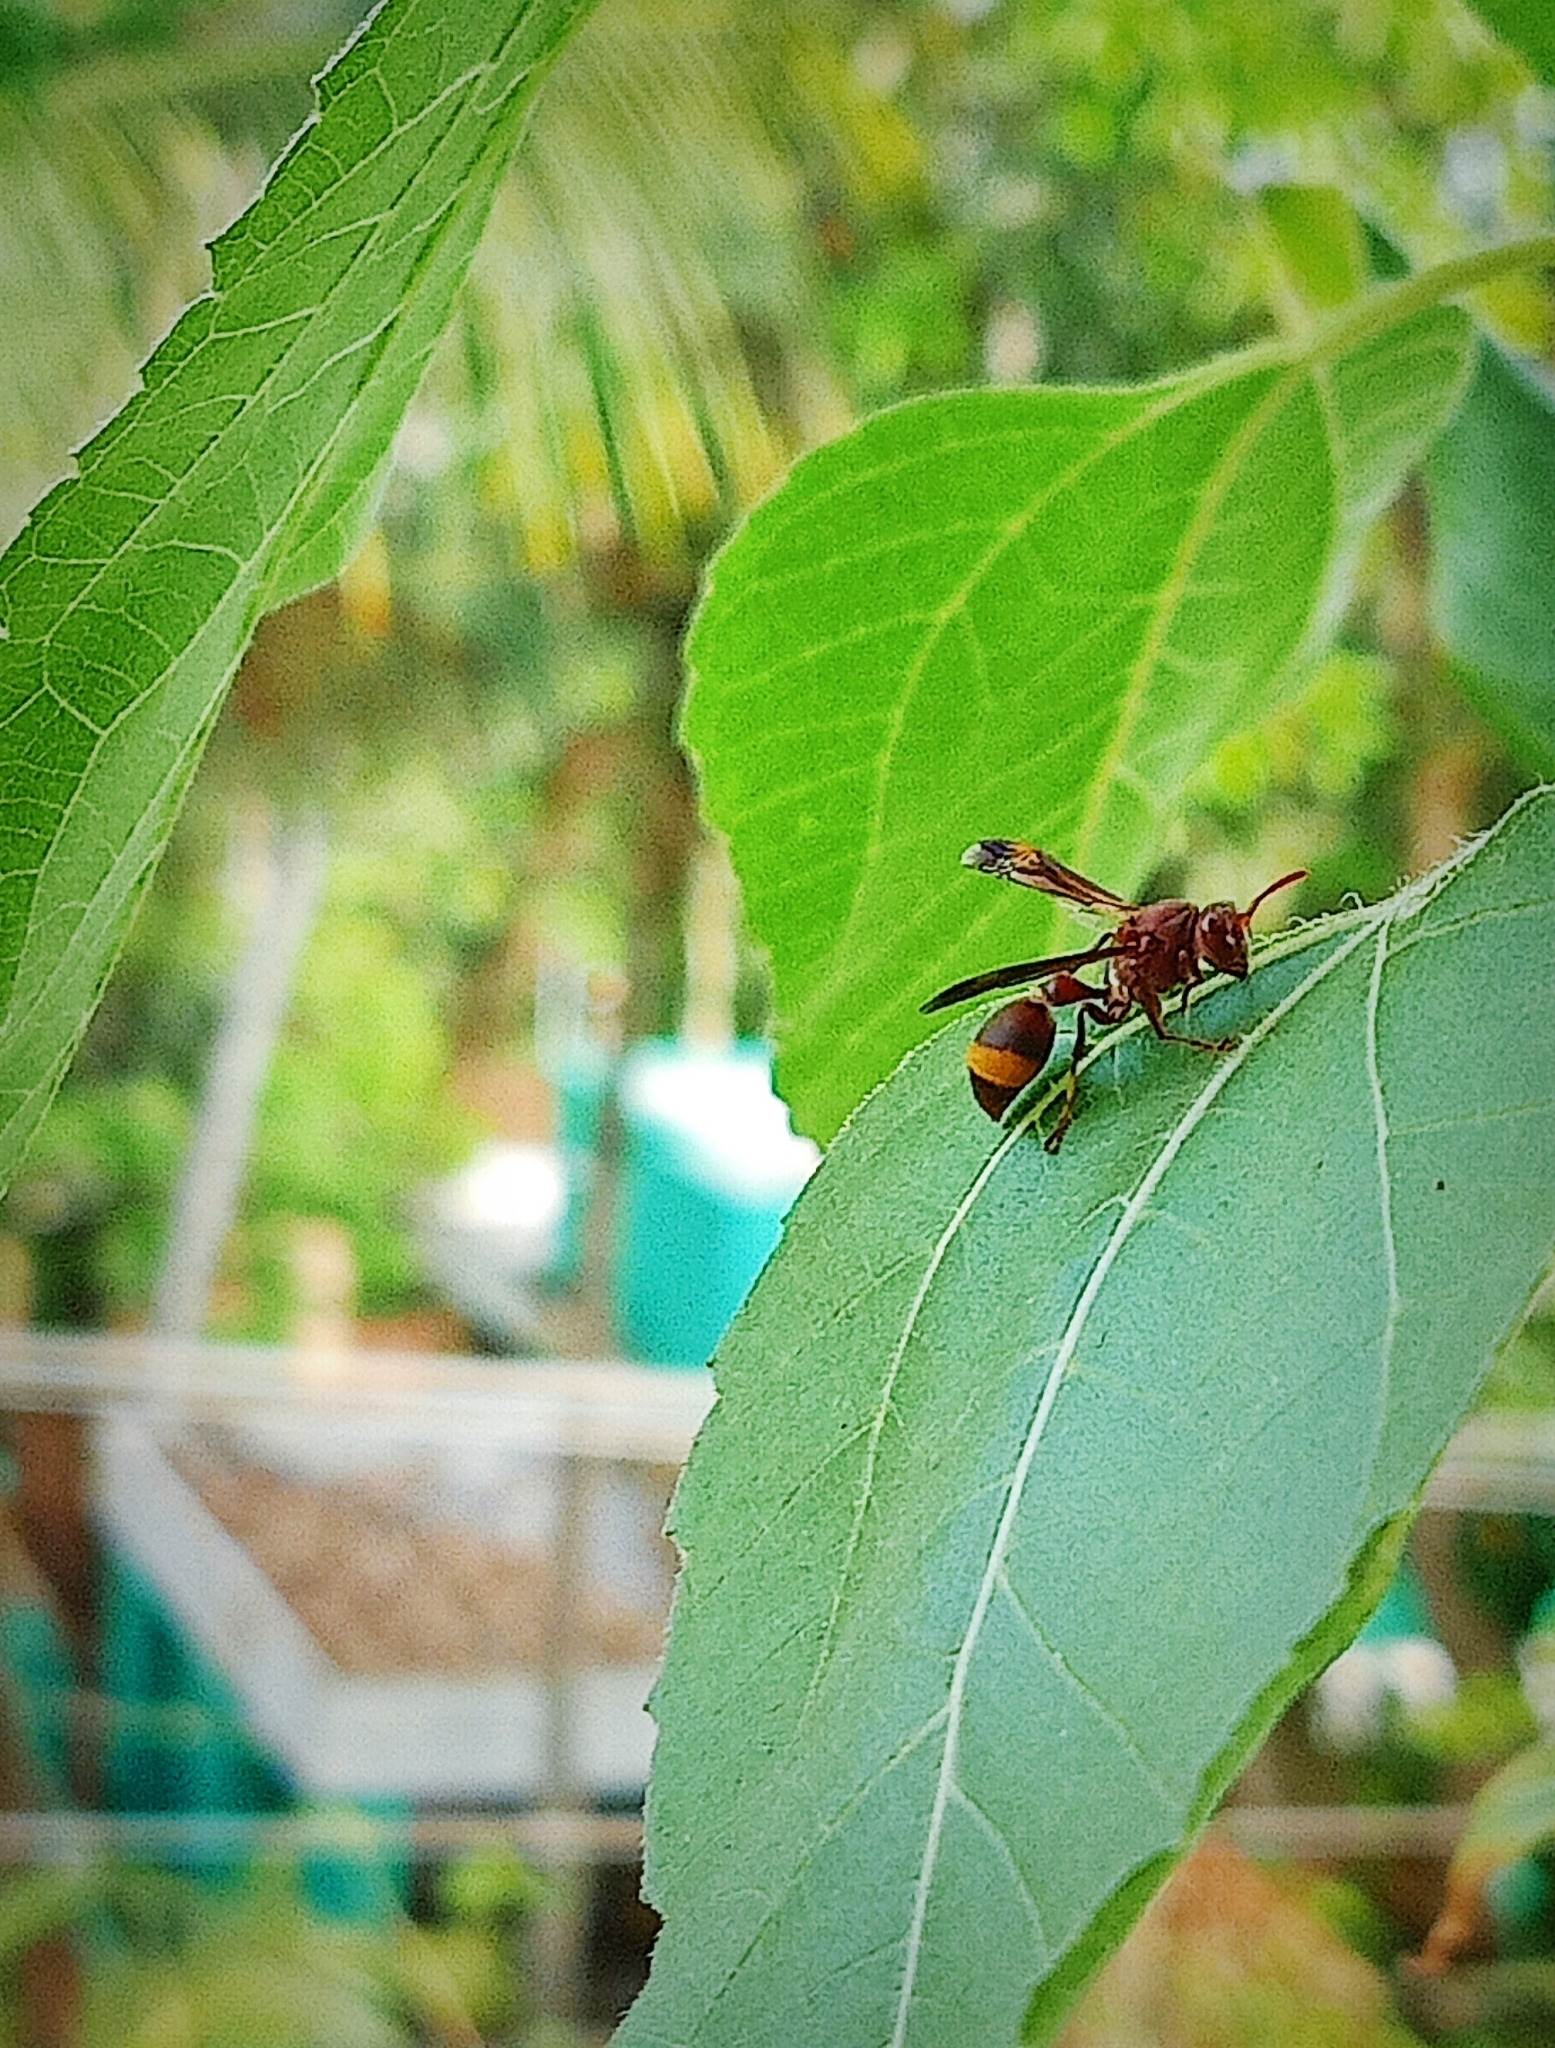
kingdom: Animalia
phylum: Arthropoda
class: Insecta
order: Hymenoptera
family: Vespidae
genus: Ropalidia
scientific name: Ropalidia
